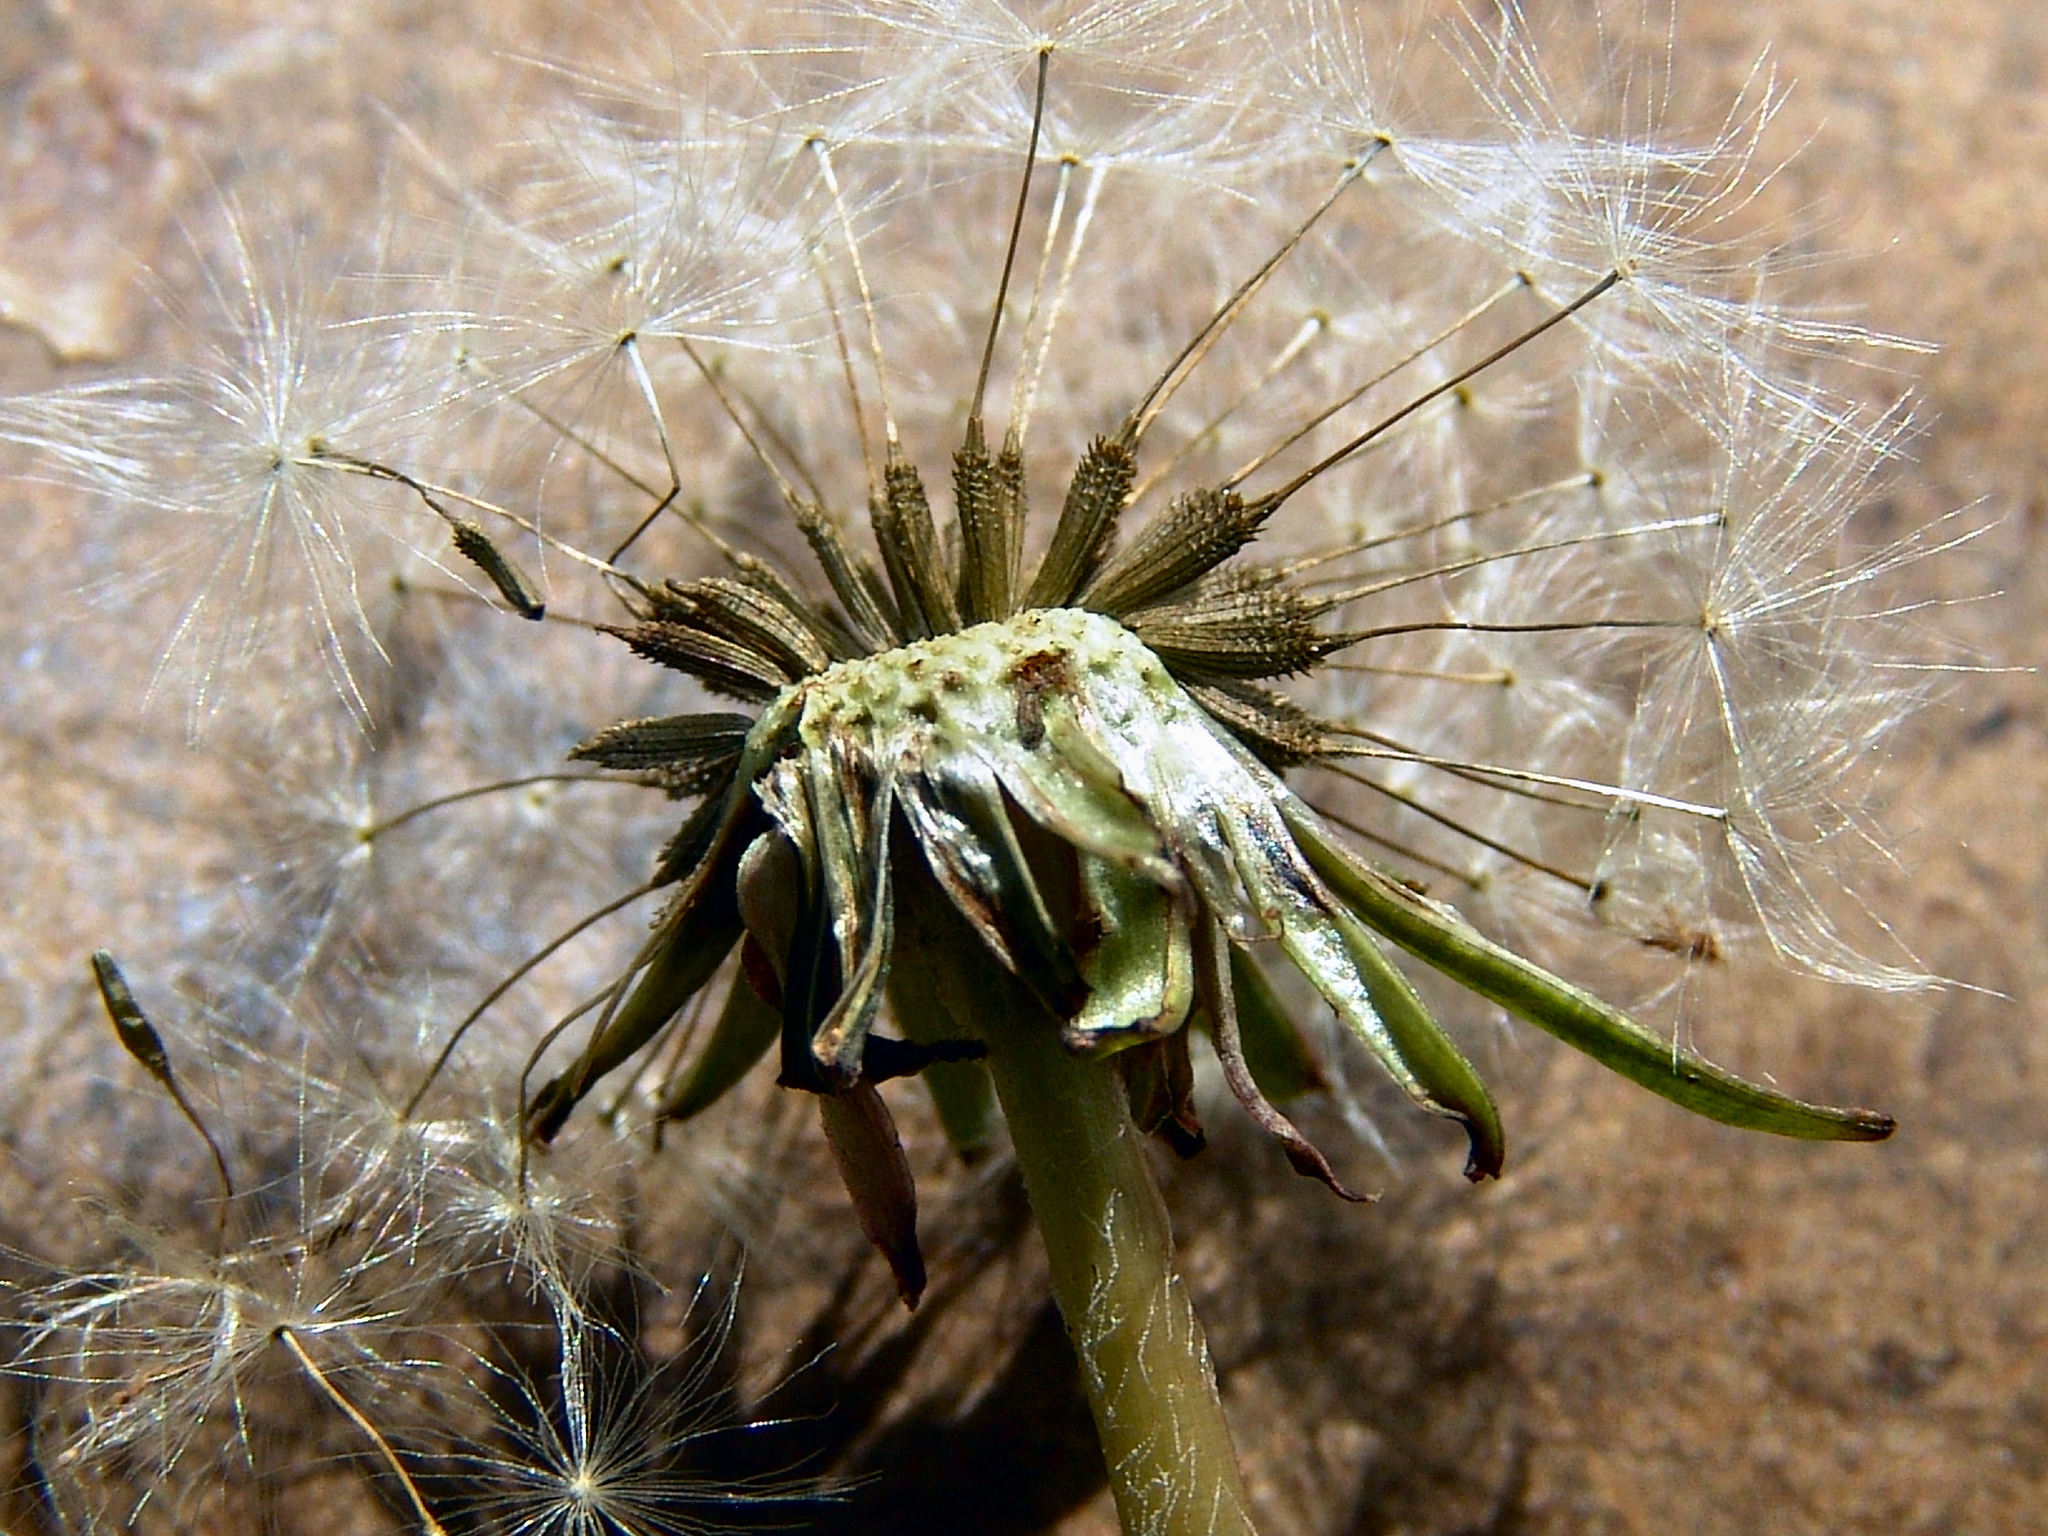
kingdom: Plantae
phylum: Tracheophyta
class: Magnoliopsida
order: Asterales
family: Asteraceae
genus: Taraxacum
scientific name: Taraxacum officinale
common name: Common dandelion
